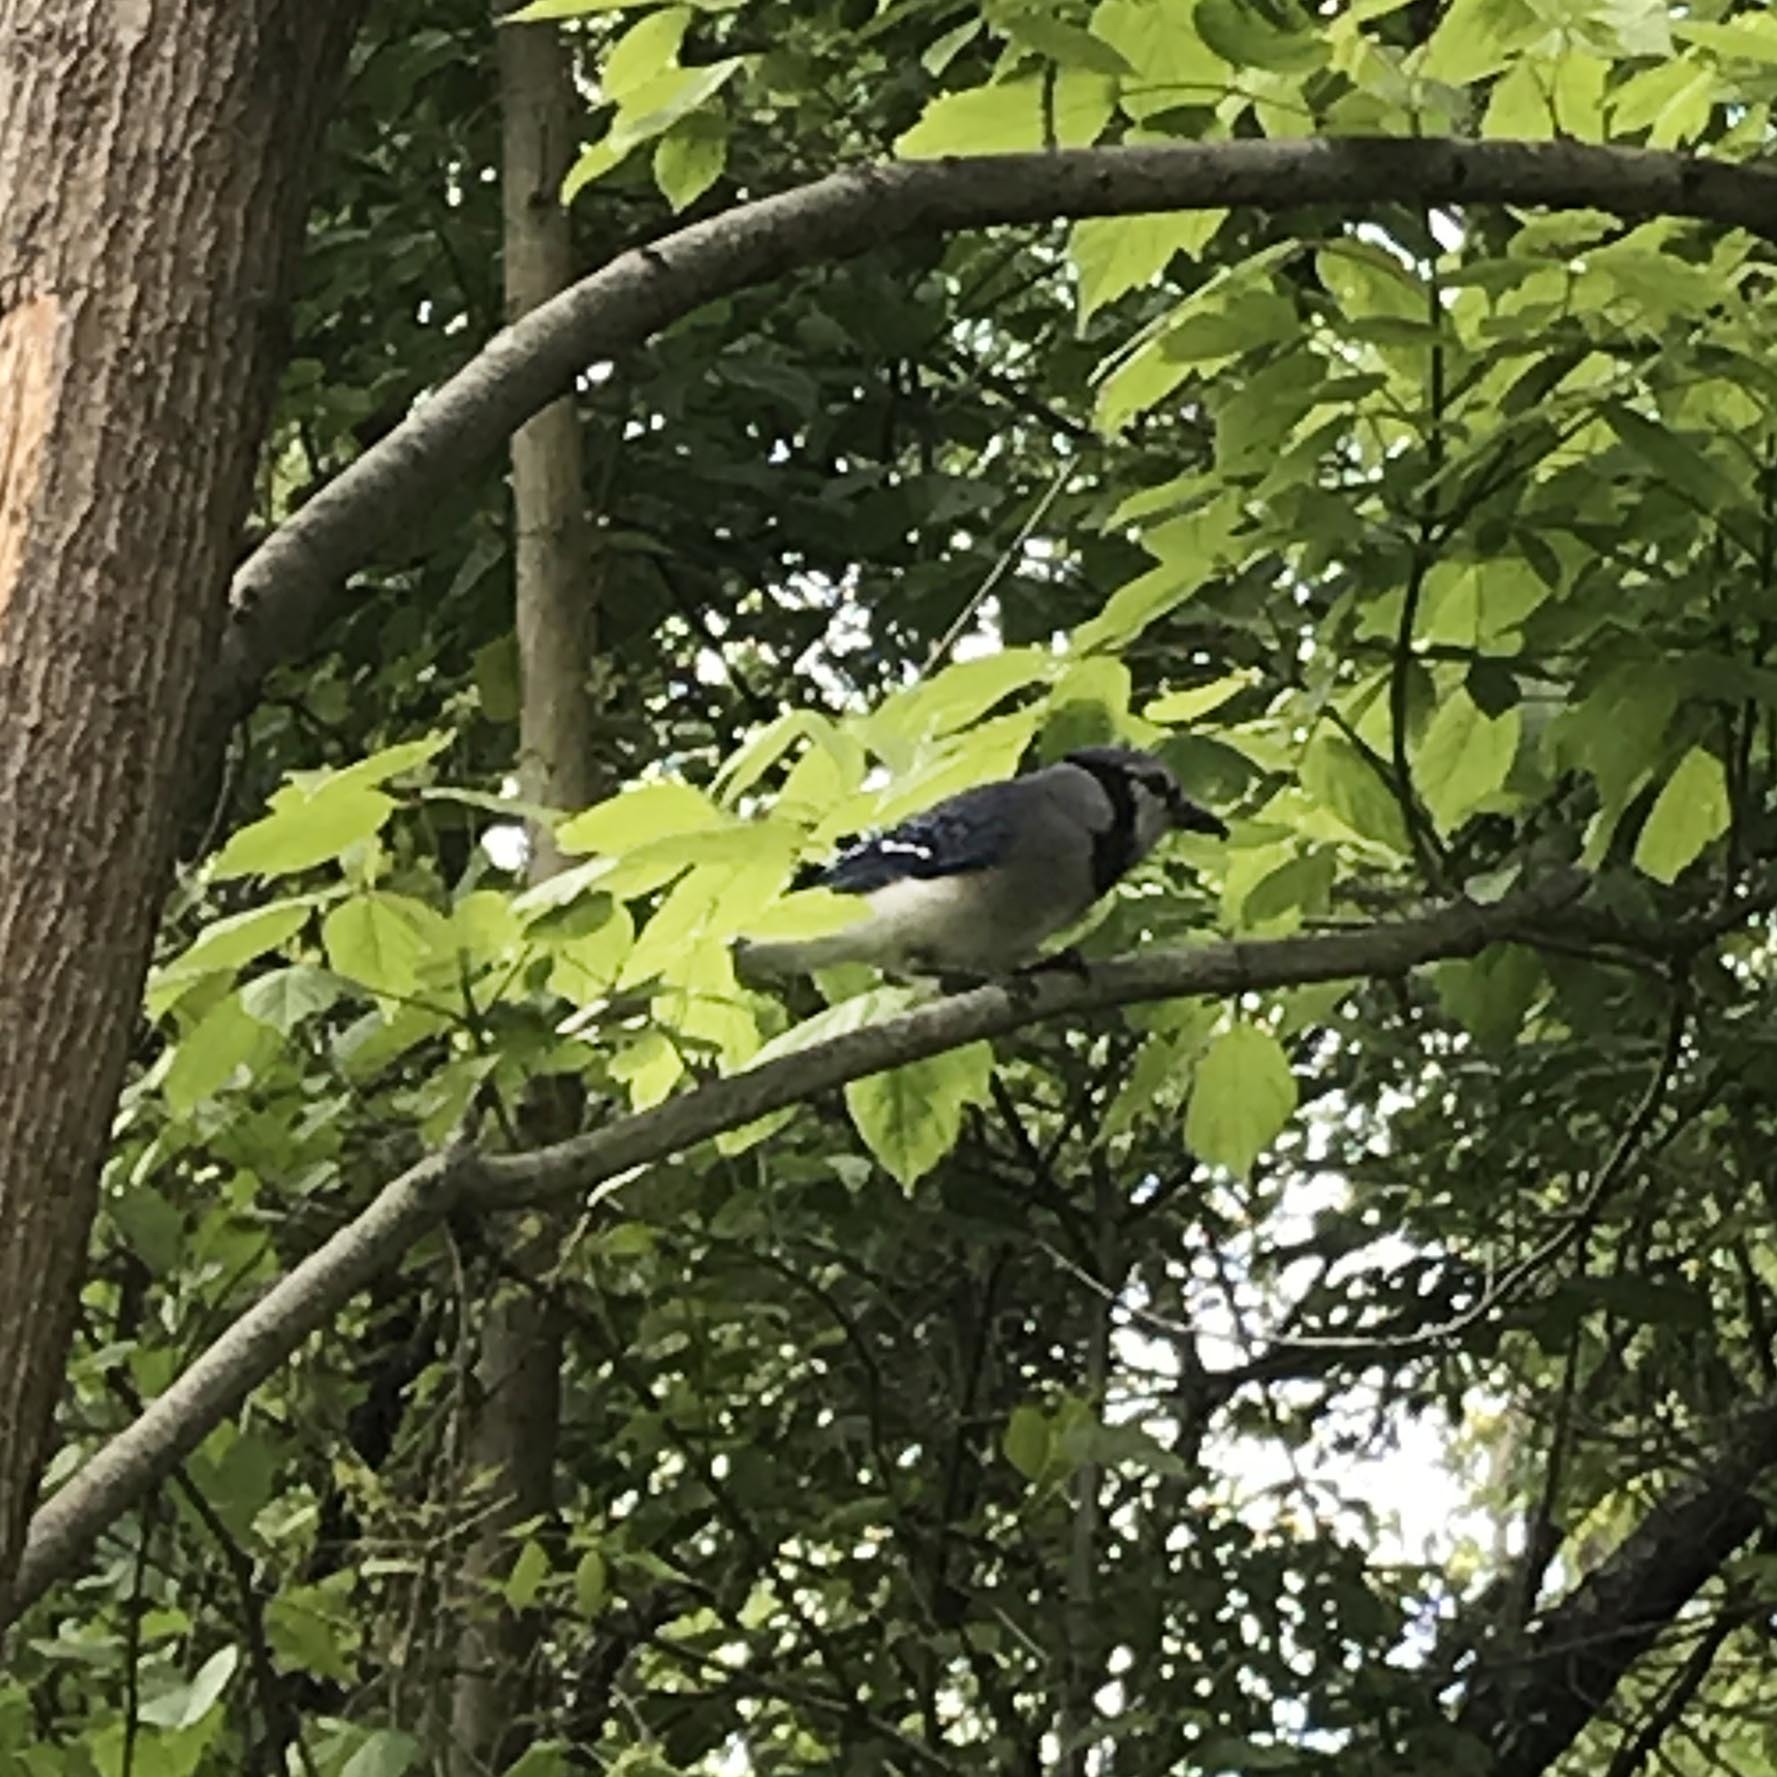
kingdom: Animalia
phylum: Chordata
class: Aves
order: Passeriformes
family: Corvidae
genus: Cyanocitta
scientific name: Cyanocitta cristata
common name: Blue jay
